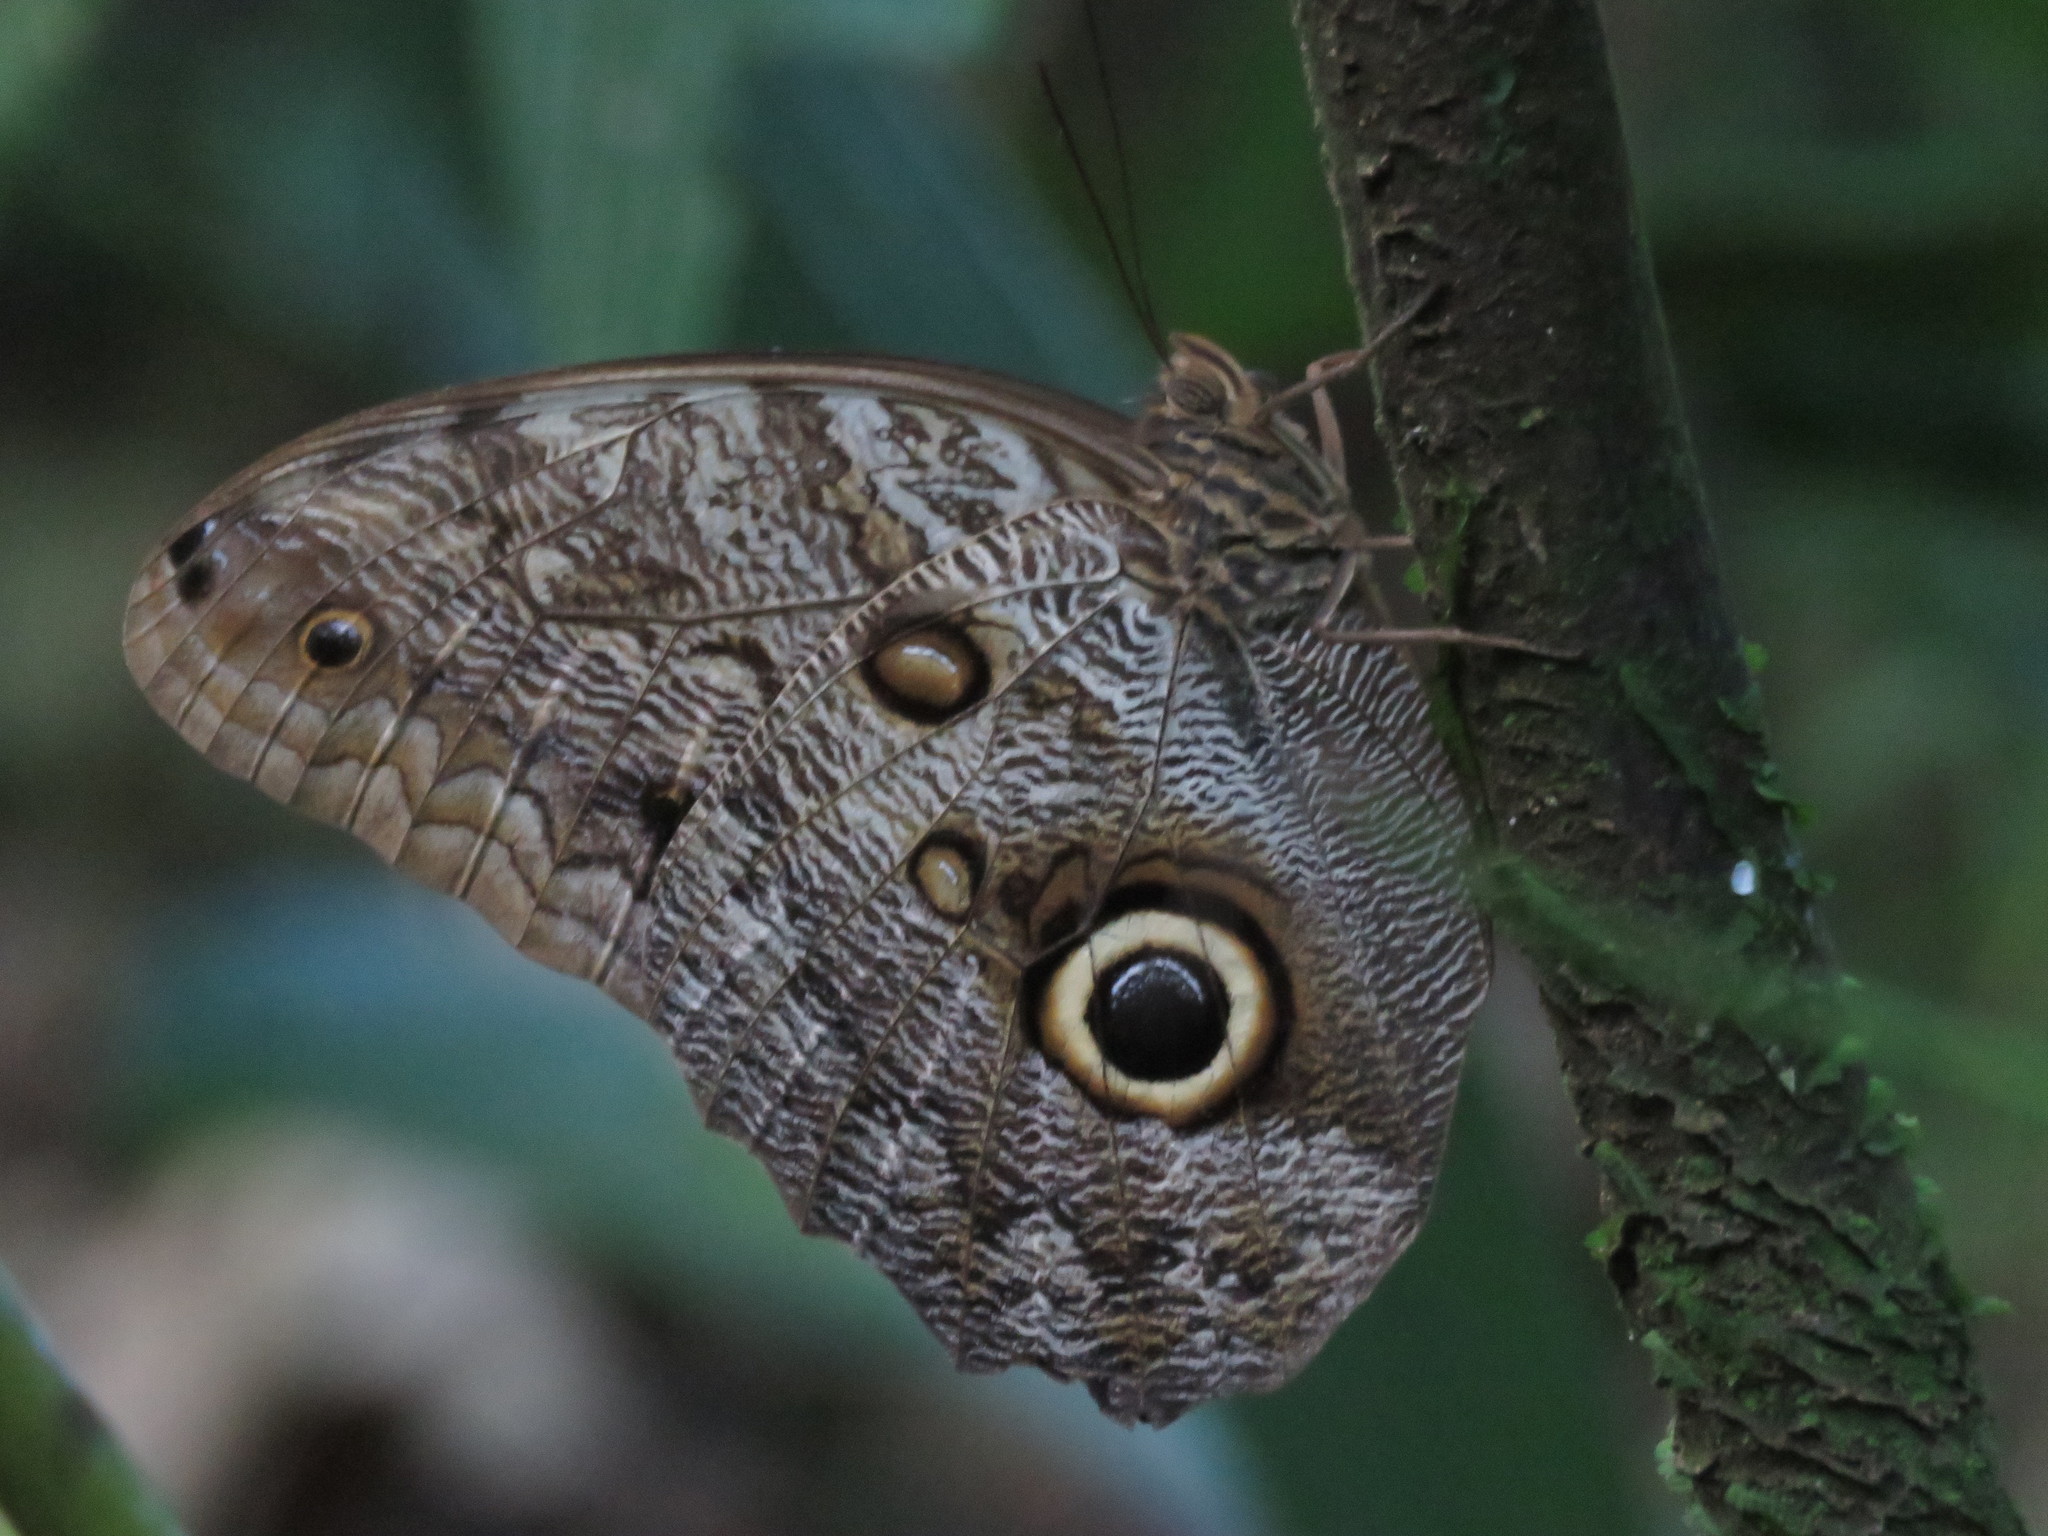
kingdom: Animalia
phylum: Arthropoda
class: Insecta
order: Lepidoptera
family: Nymphalidae
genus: Caligo
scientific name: Caligo telamonius
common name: Pale owl-butterfly
